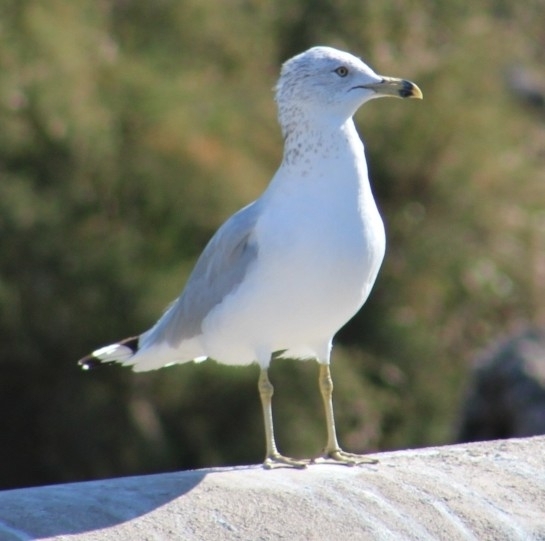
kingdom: Animalia
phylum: Chordata
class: Aves
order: Charadriiformes
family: Laridae
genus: Larus
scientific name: Larus delawarensis
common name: Ring-billed gull
